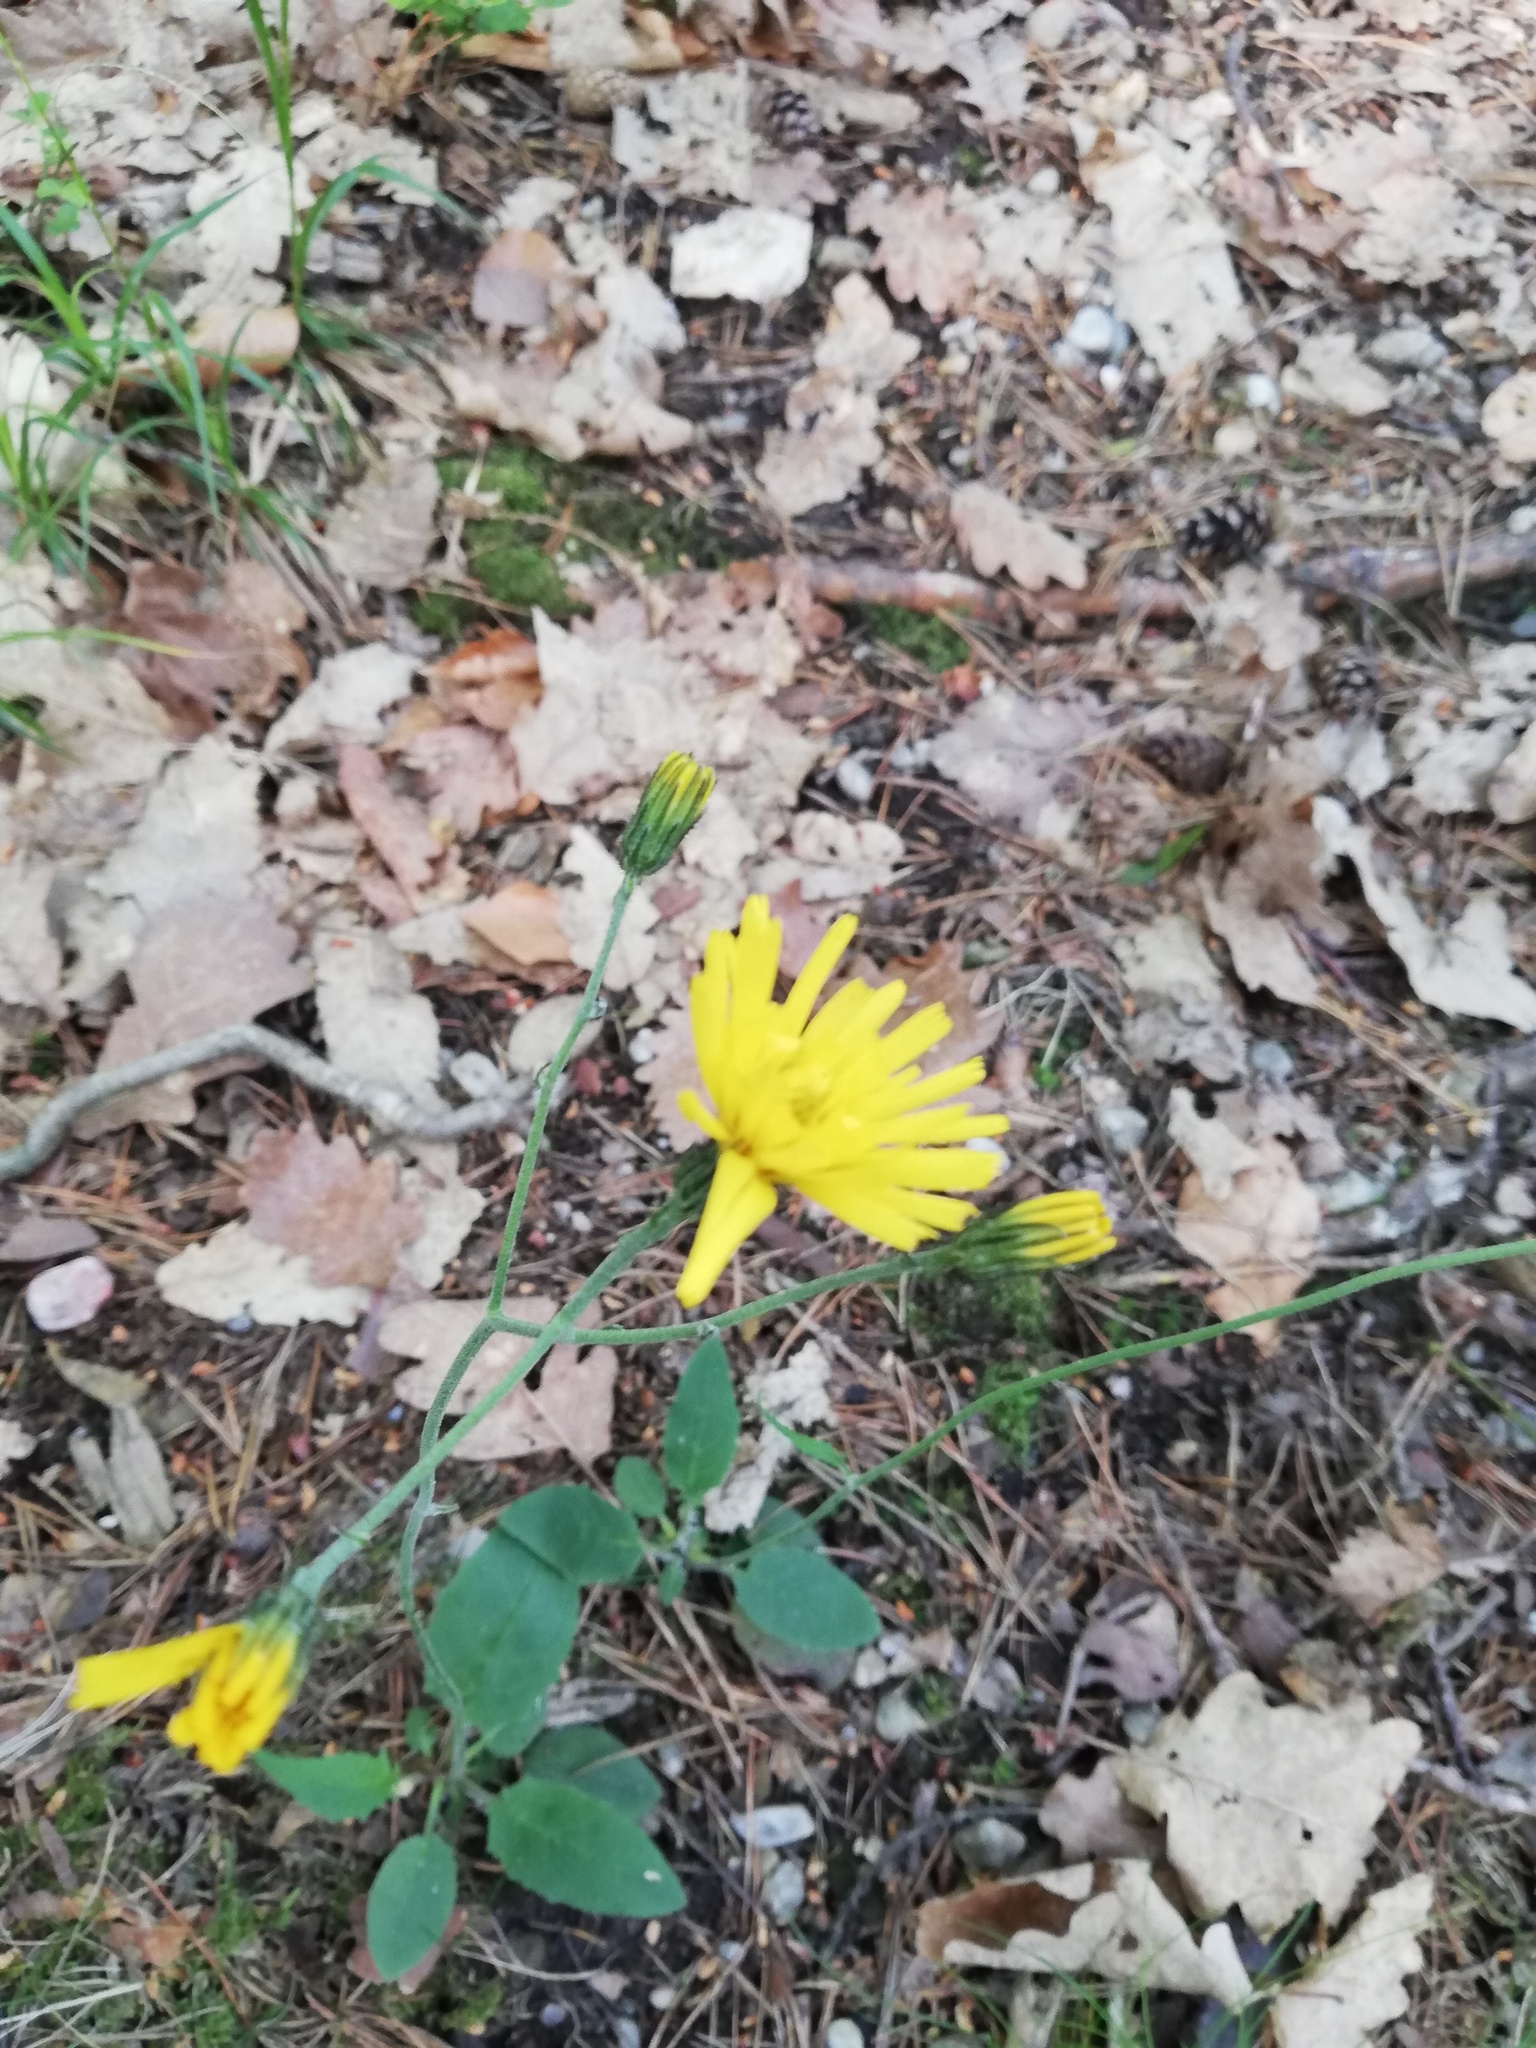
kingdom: Plantae
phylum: Tracheophyta
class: Magnoliopsida
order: Asterales
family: Asteraceae
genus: Hieracium
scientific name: Hieracium murorum
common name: Wall hawkweed
